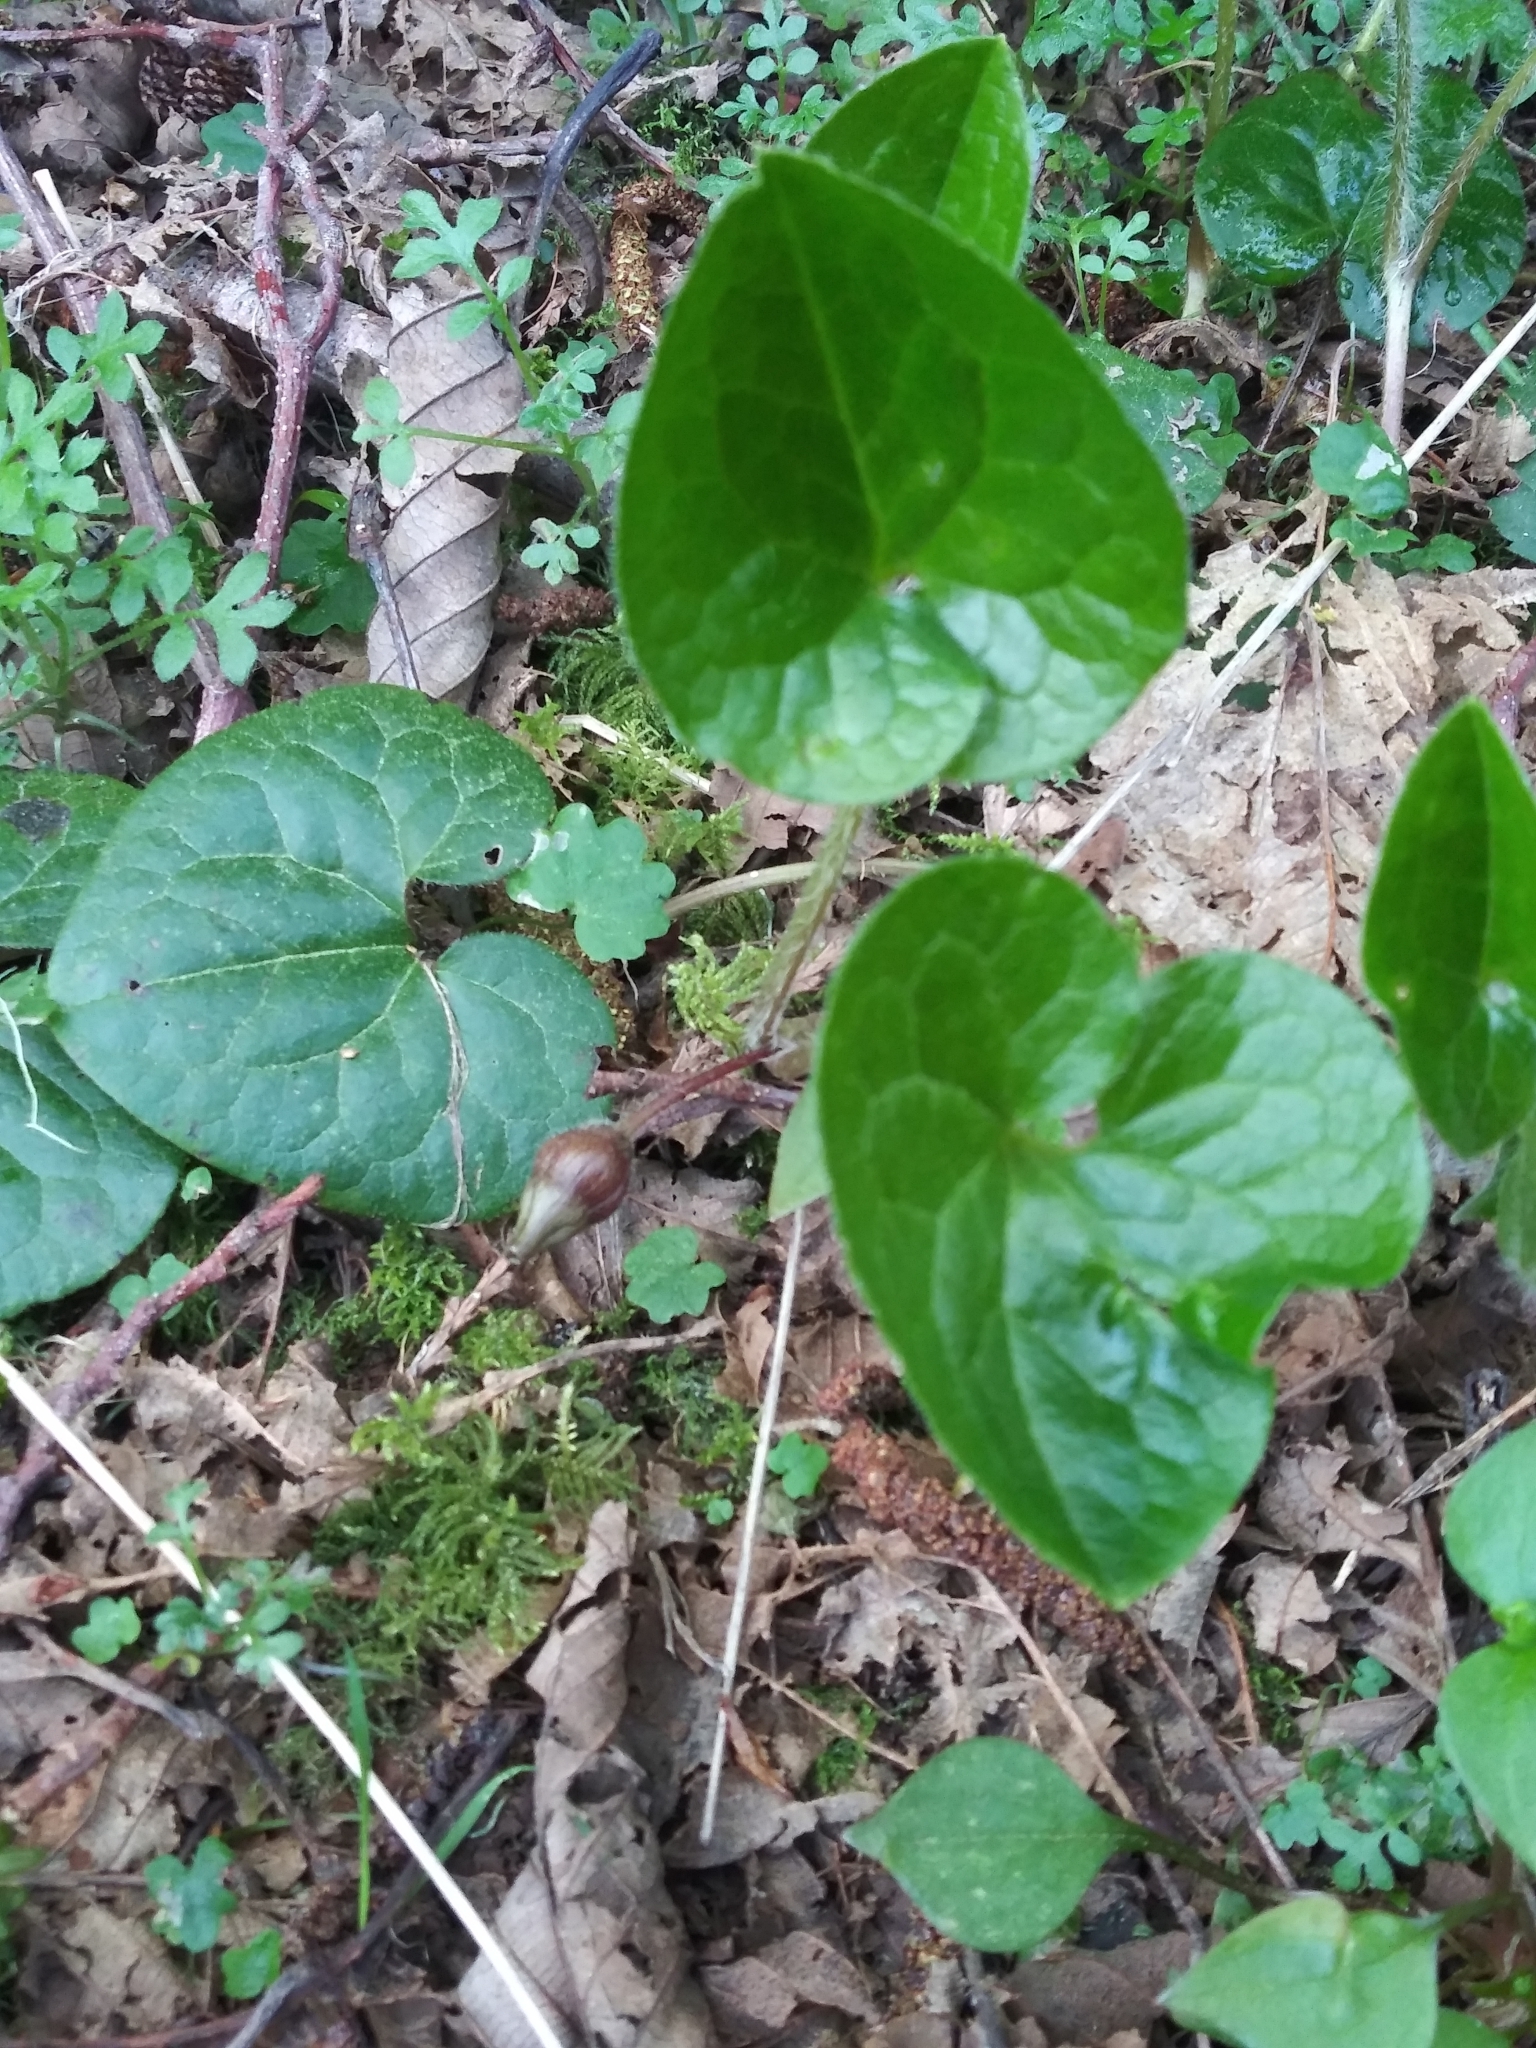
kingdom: Plantae
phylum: Tracheophyta
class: Magnoliopsida
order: Piperales
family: Aristolochiaceae
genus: Asarum
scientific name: Asarum caudatum
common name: Wild ginger
